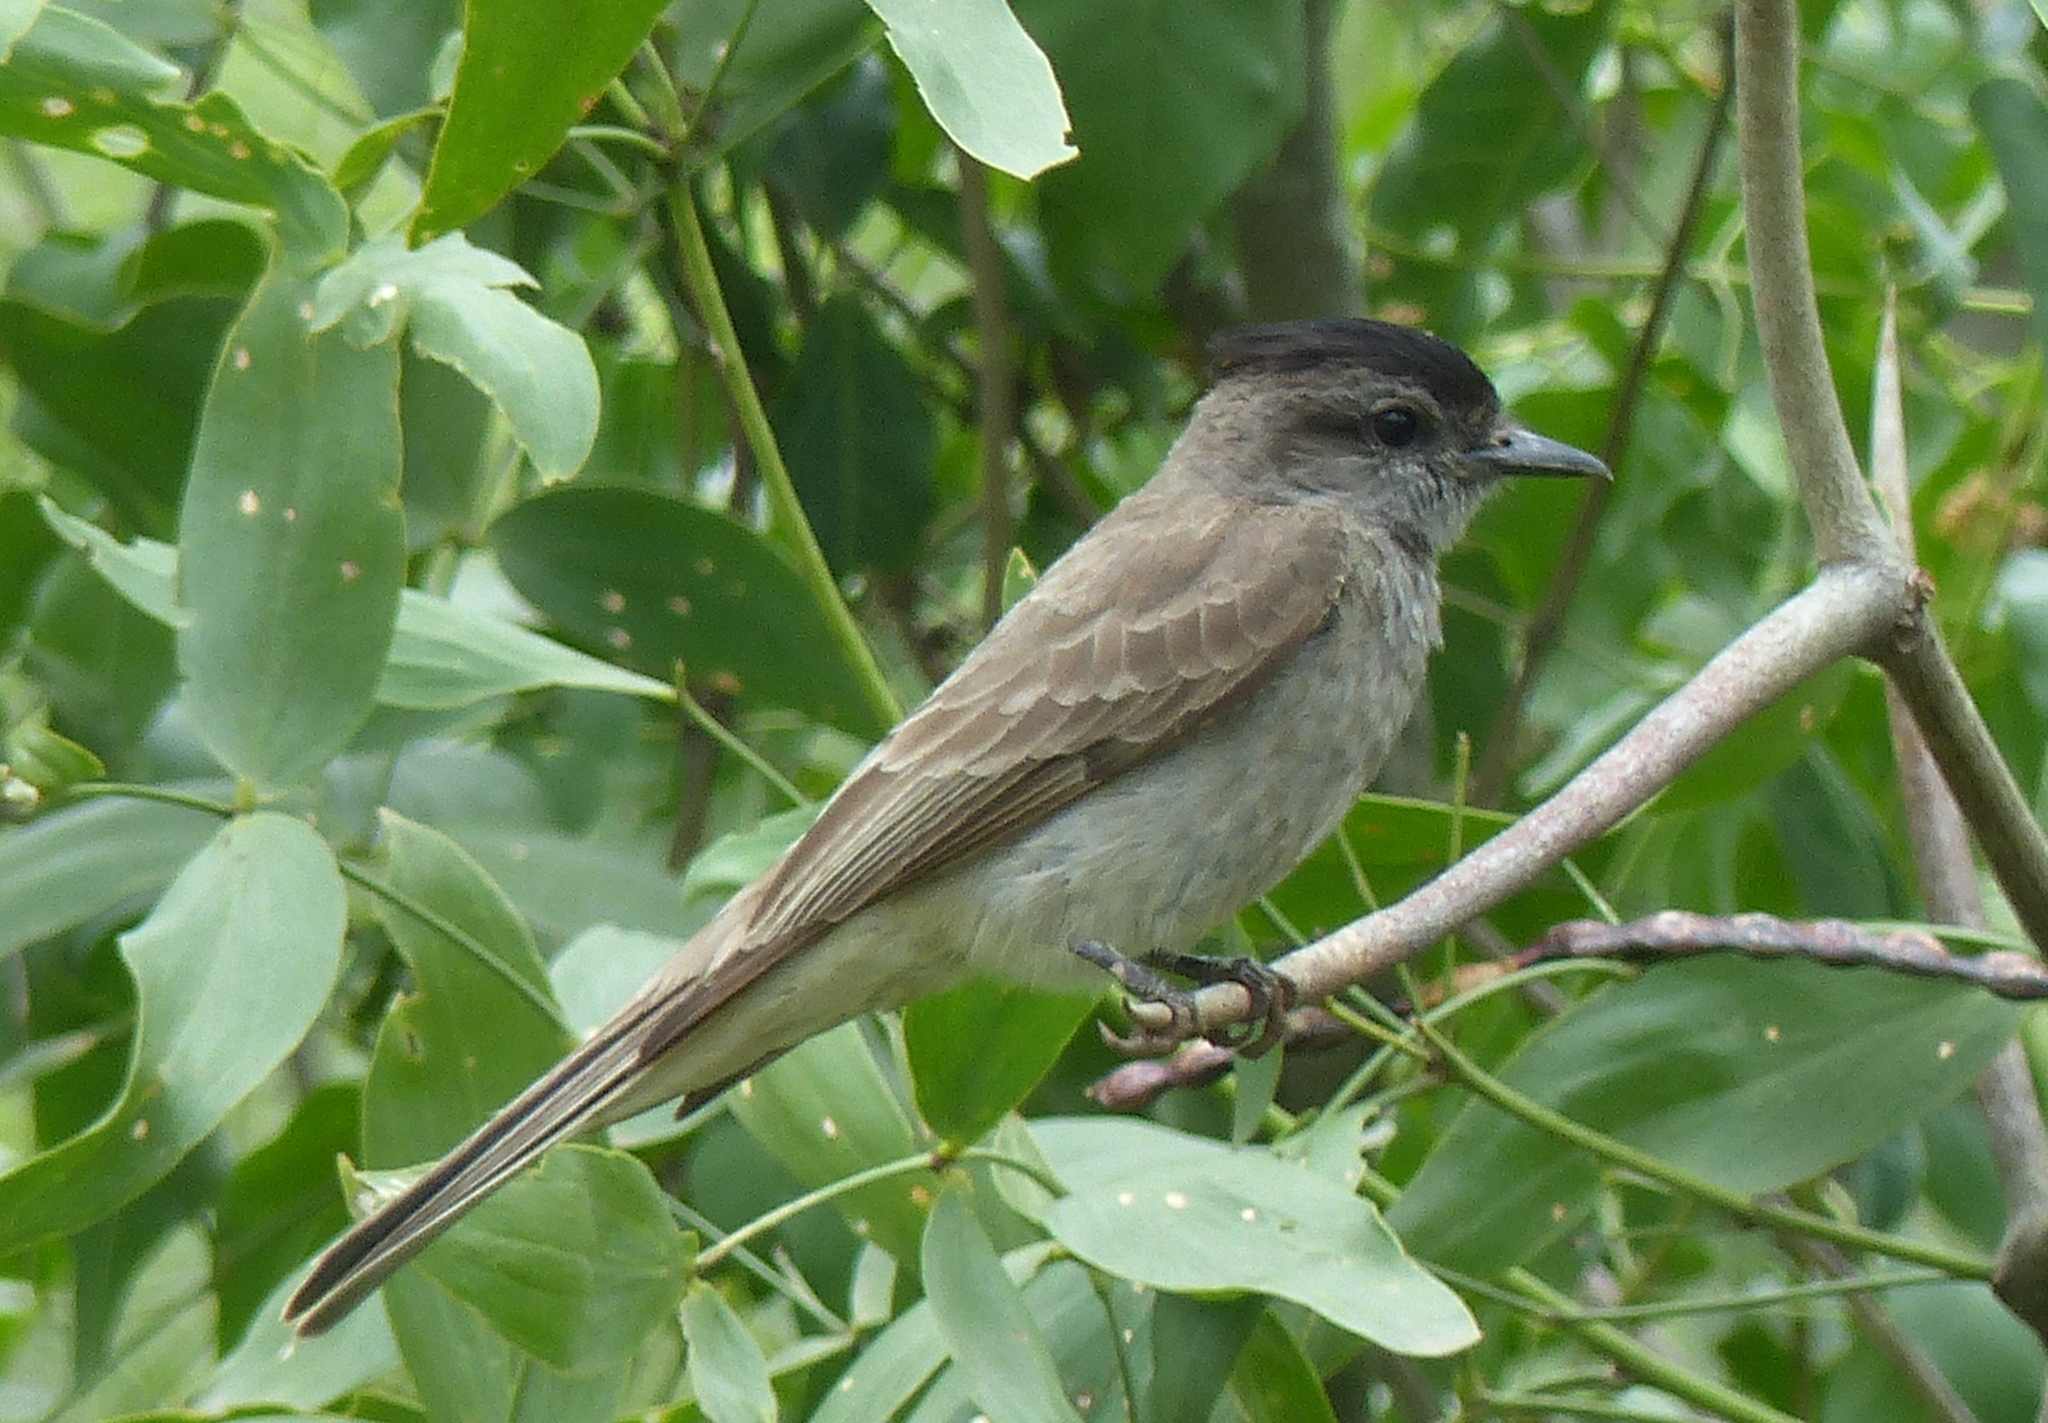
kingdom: Animalia
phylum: Chordata
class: Aves
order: Passeriformes
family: Tyrannidae
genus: Empidonomus
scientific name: Empidonomus aurantioatrocristatus
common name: Crowned slaty flycatcher
